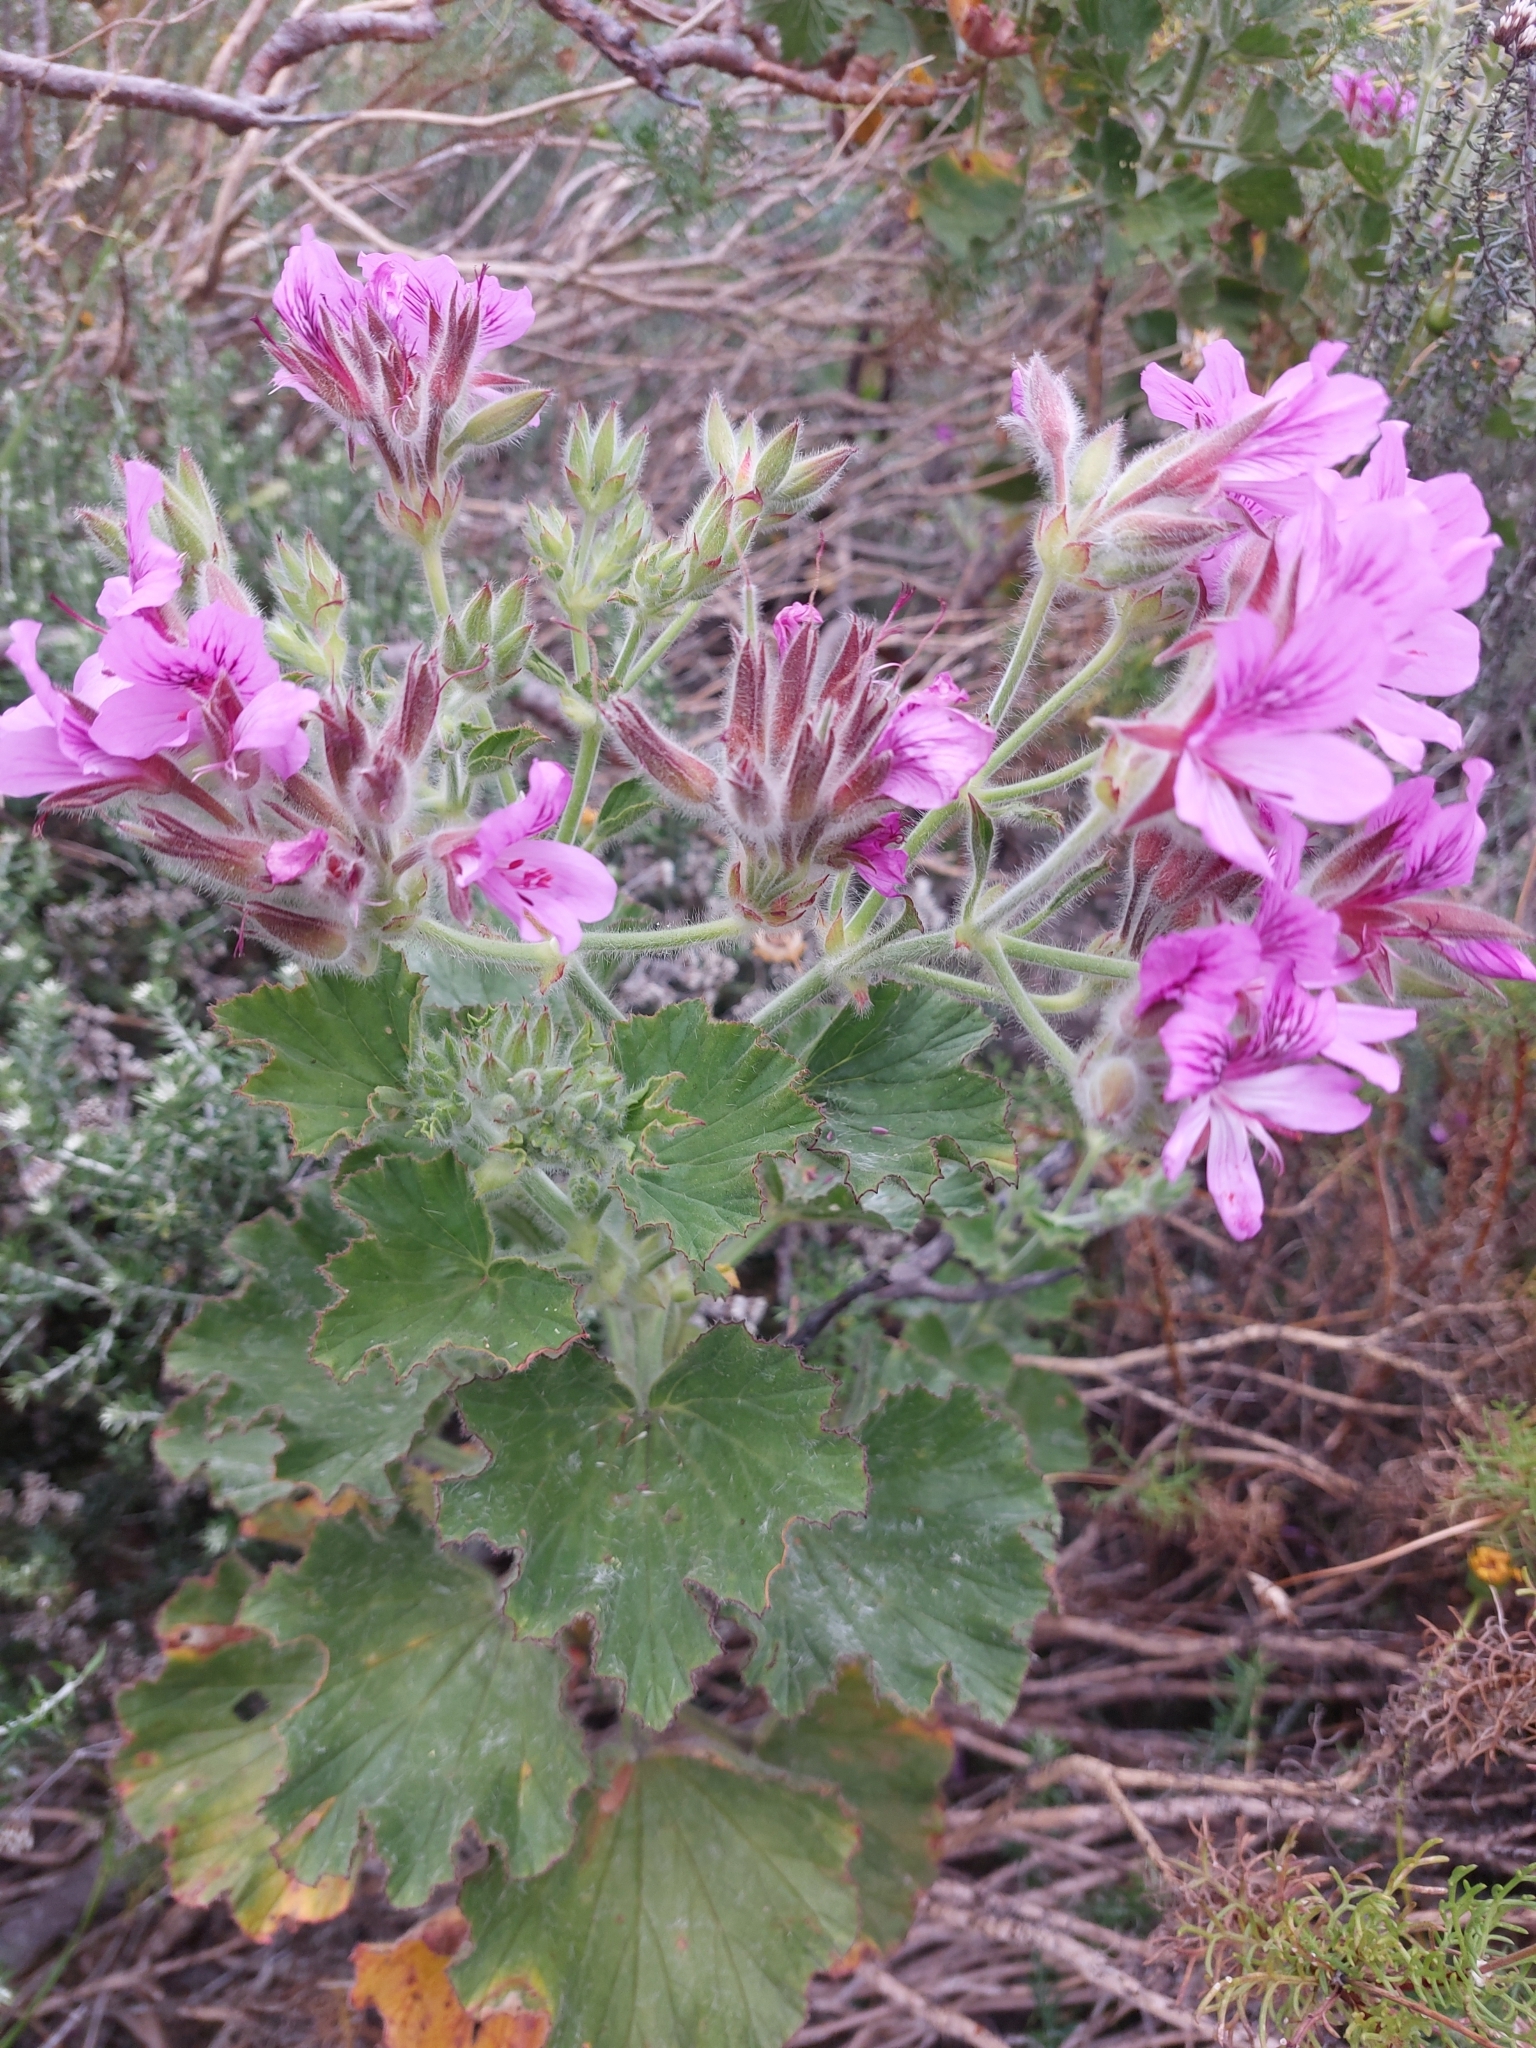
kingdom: Plantae
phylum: Tracheophyta
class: Magnoliopsida
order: Geraniales
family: Geraniaceae
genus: Pelargonium
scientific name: Pelargonium cucullatum
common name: Tree pelargonium
